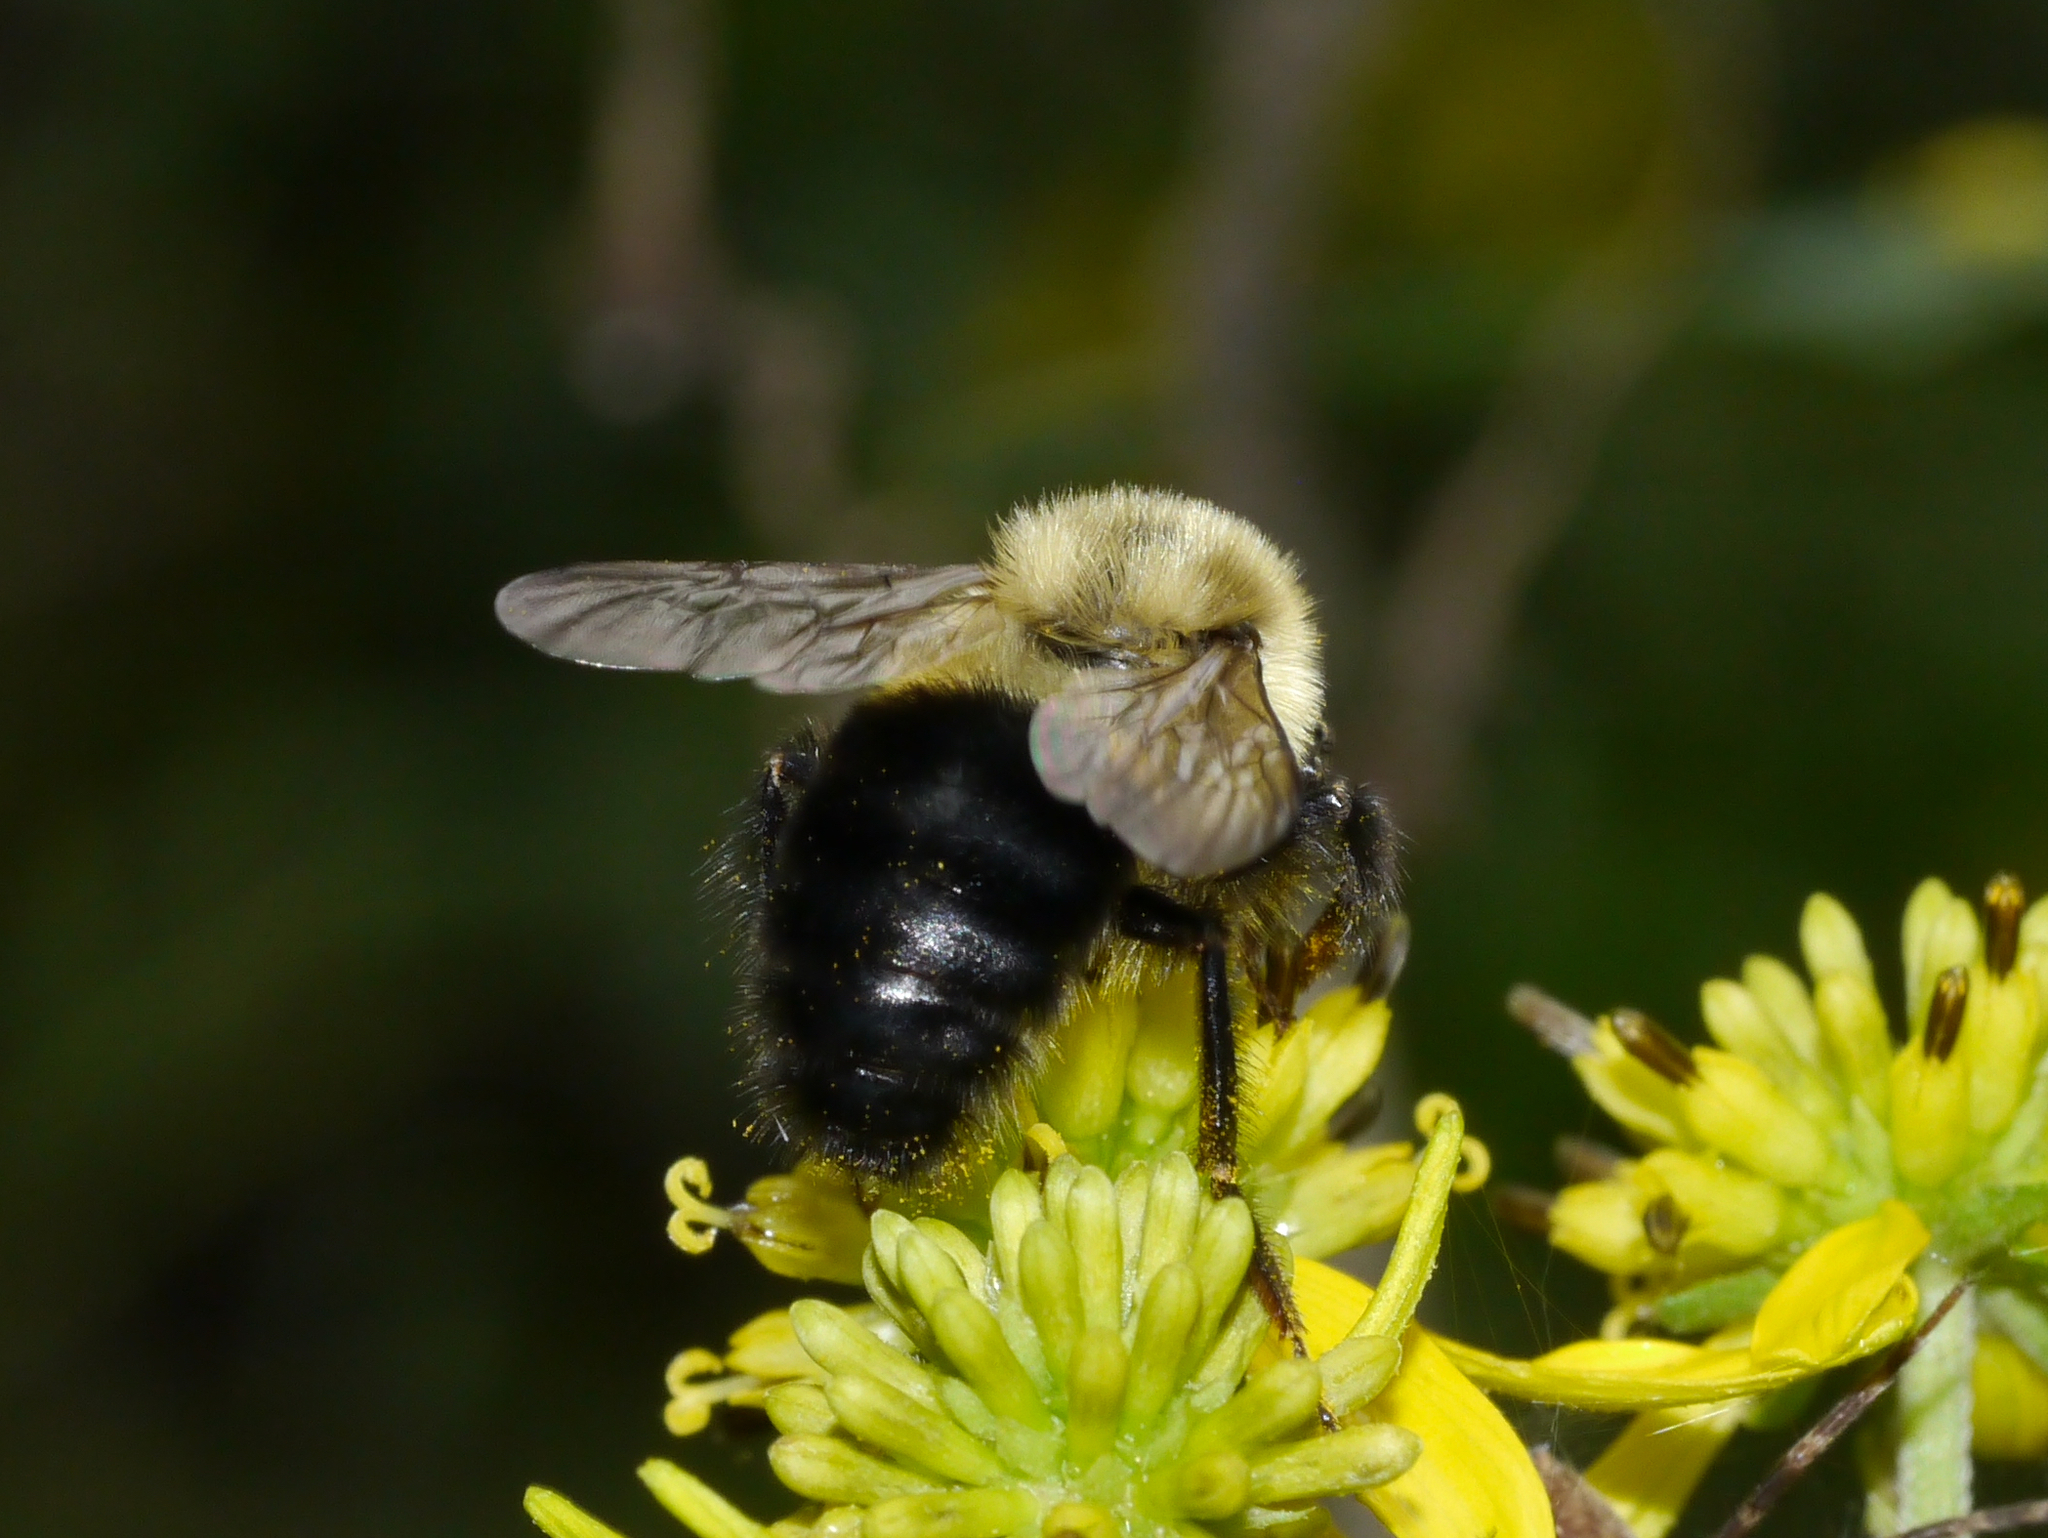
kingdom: Animalia
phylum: Arthropoda
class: Insecta
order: Hymenoptera
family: Apidae
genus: Bombus
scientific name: Bombus impatiens
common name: Common eastern bumble bee
